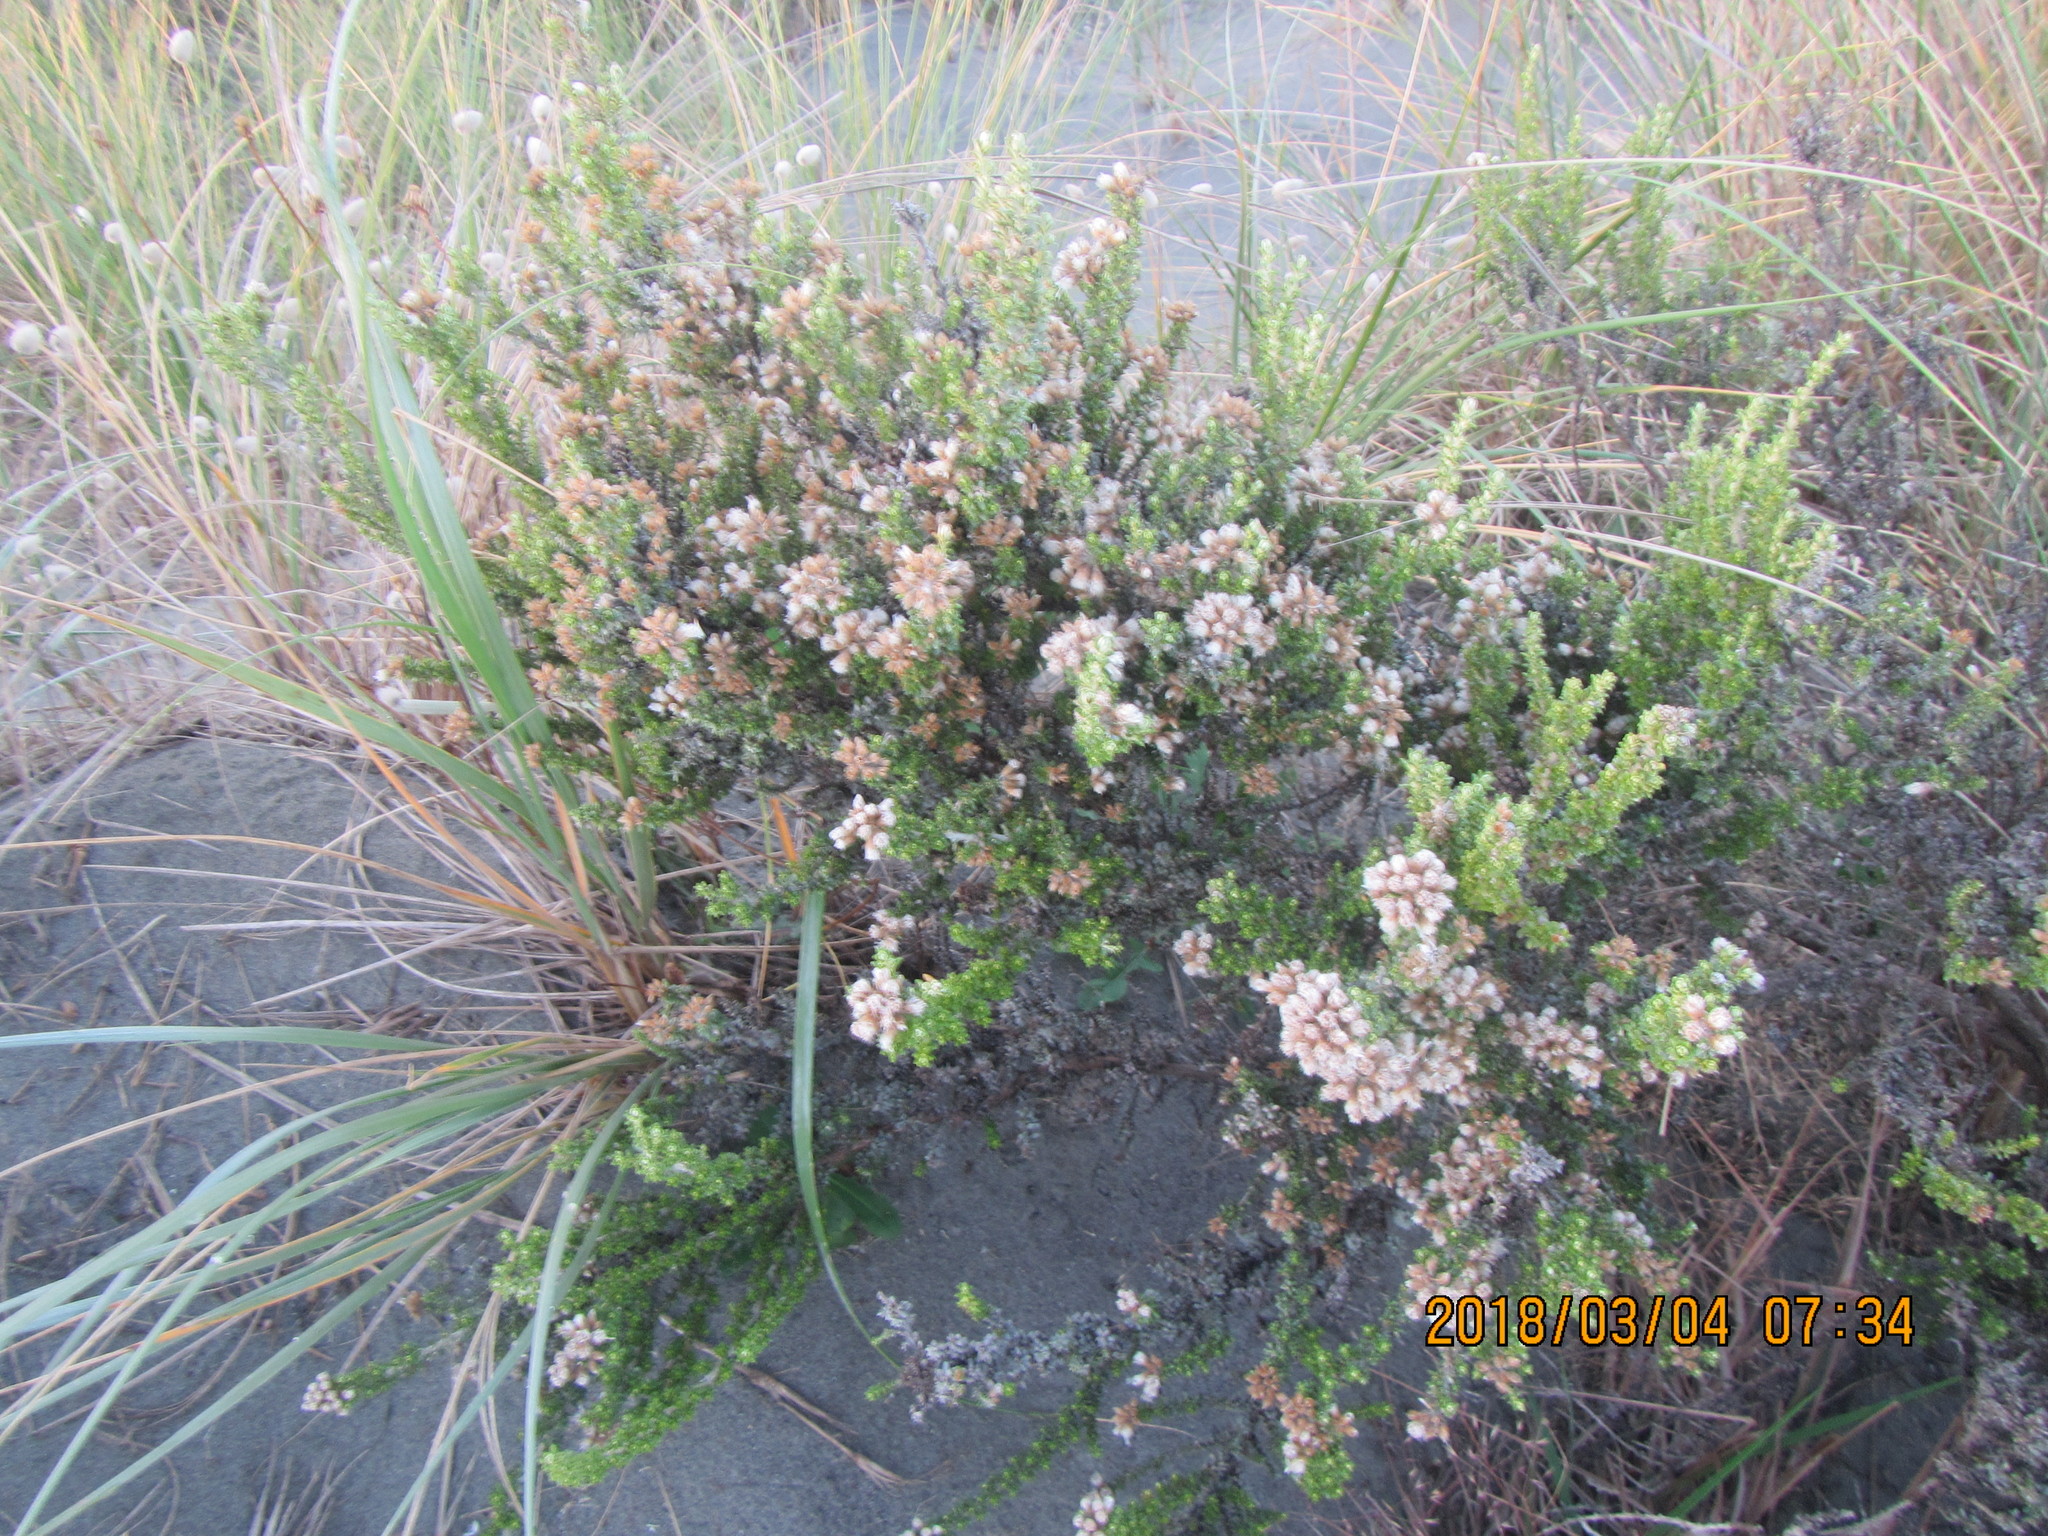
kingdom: Plantae
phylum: Tracheophyta
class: Magnoliopsida
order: Asterales
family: Asteraceae
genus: Ozothamnus
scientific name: Ozothamnus leptophyllus
